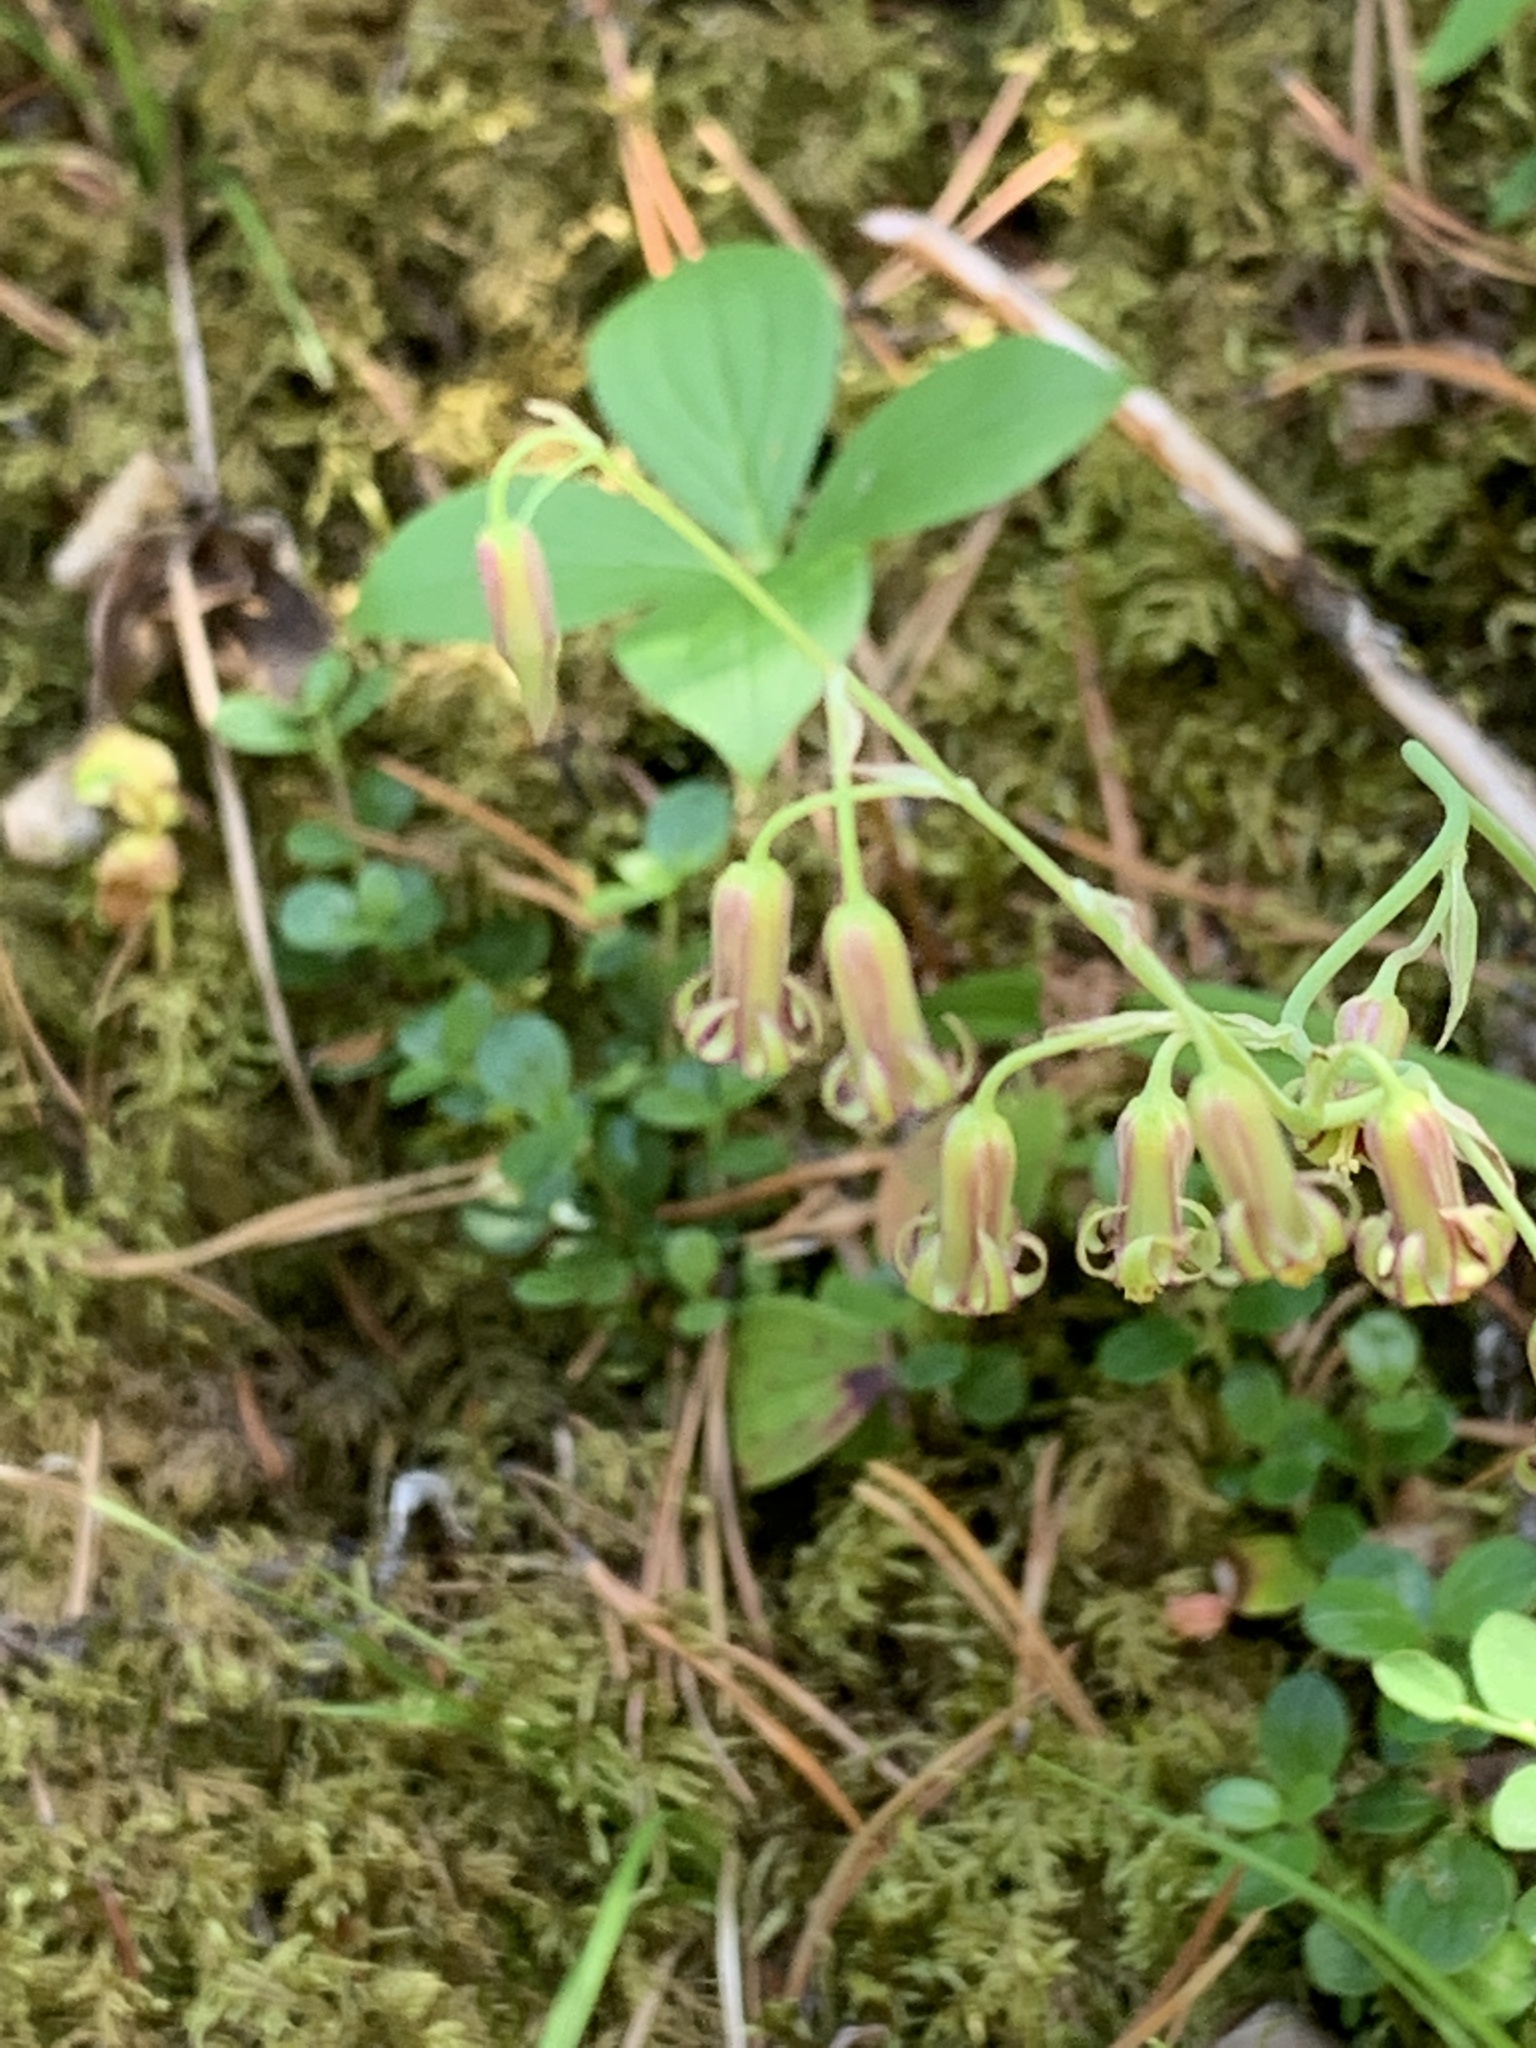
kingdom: Plantae
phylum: Tracheophyta
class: Liliopsida
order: Liliales
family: Melanthiaceae
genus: Anticlea
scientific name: Anticlea occidentalis
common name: Bronze-bells
